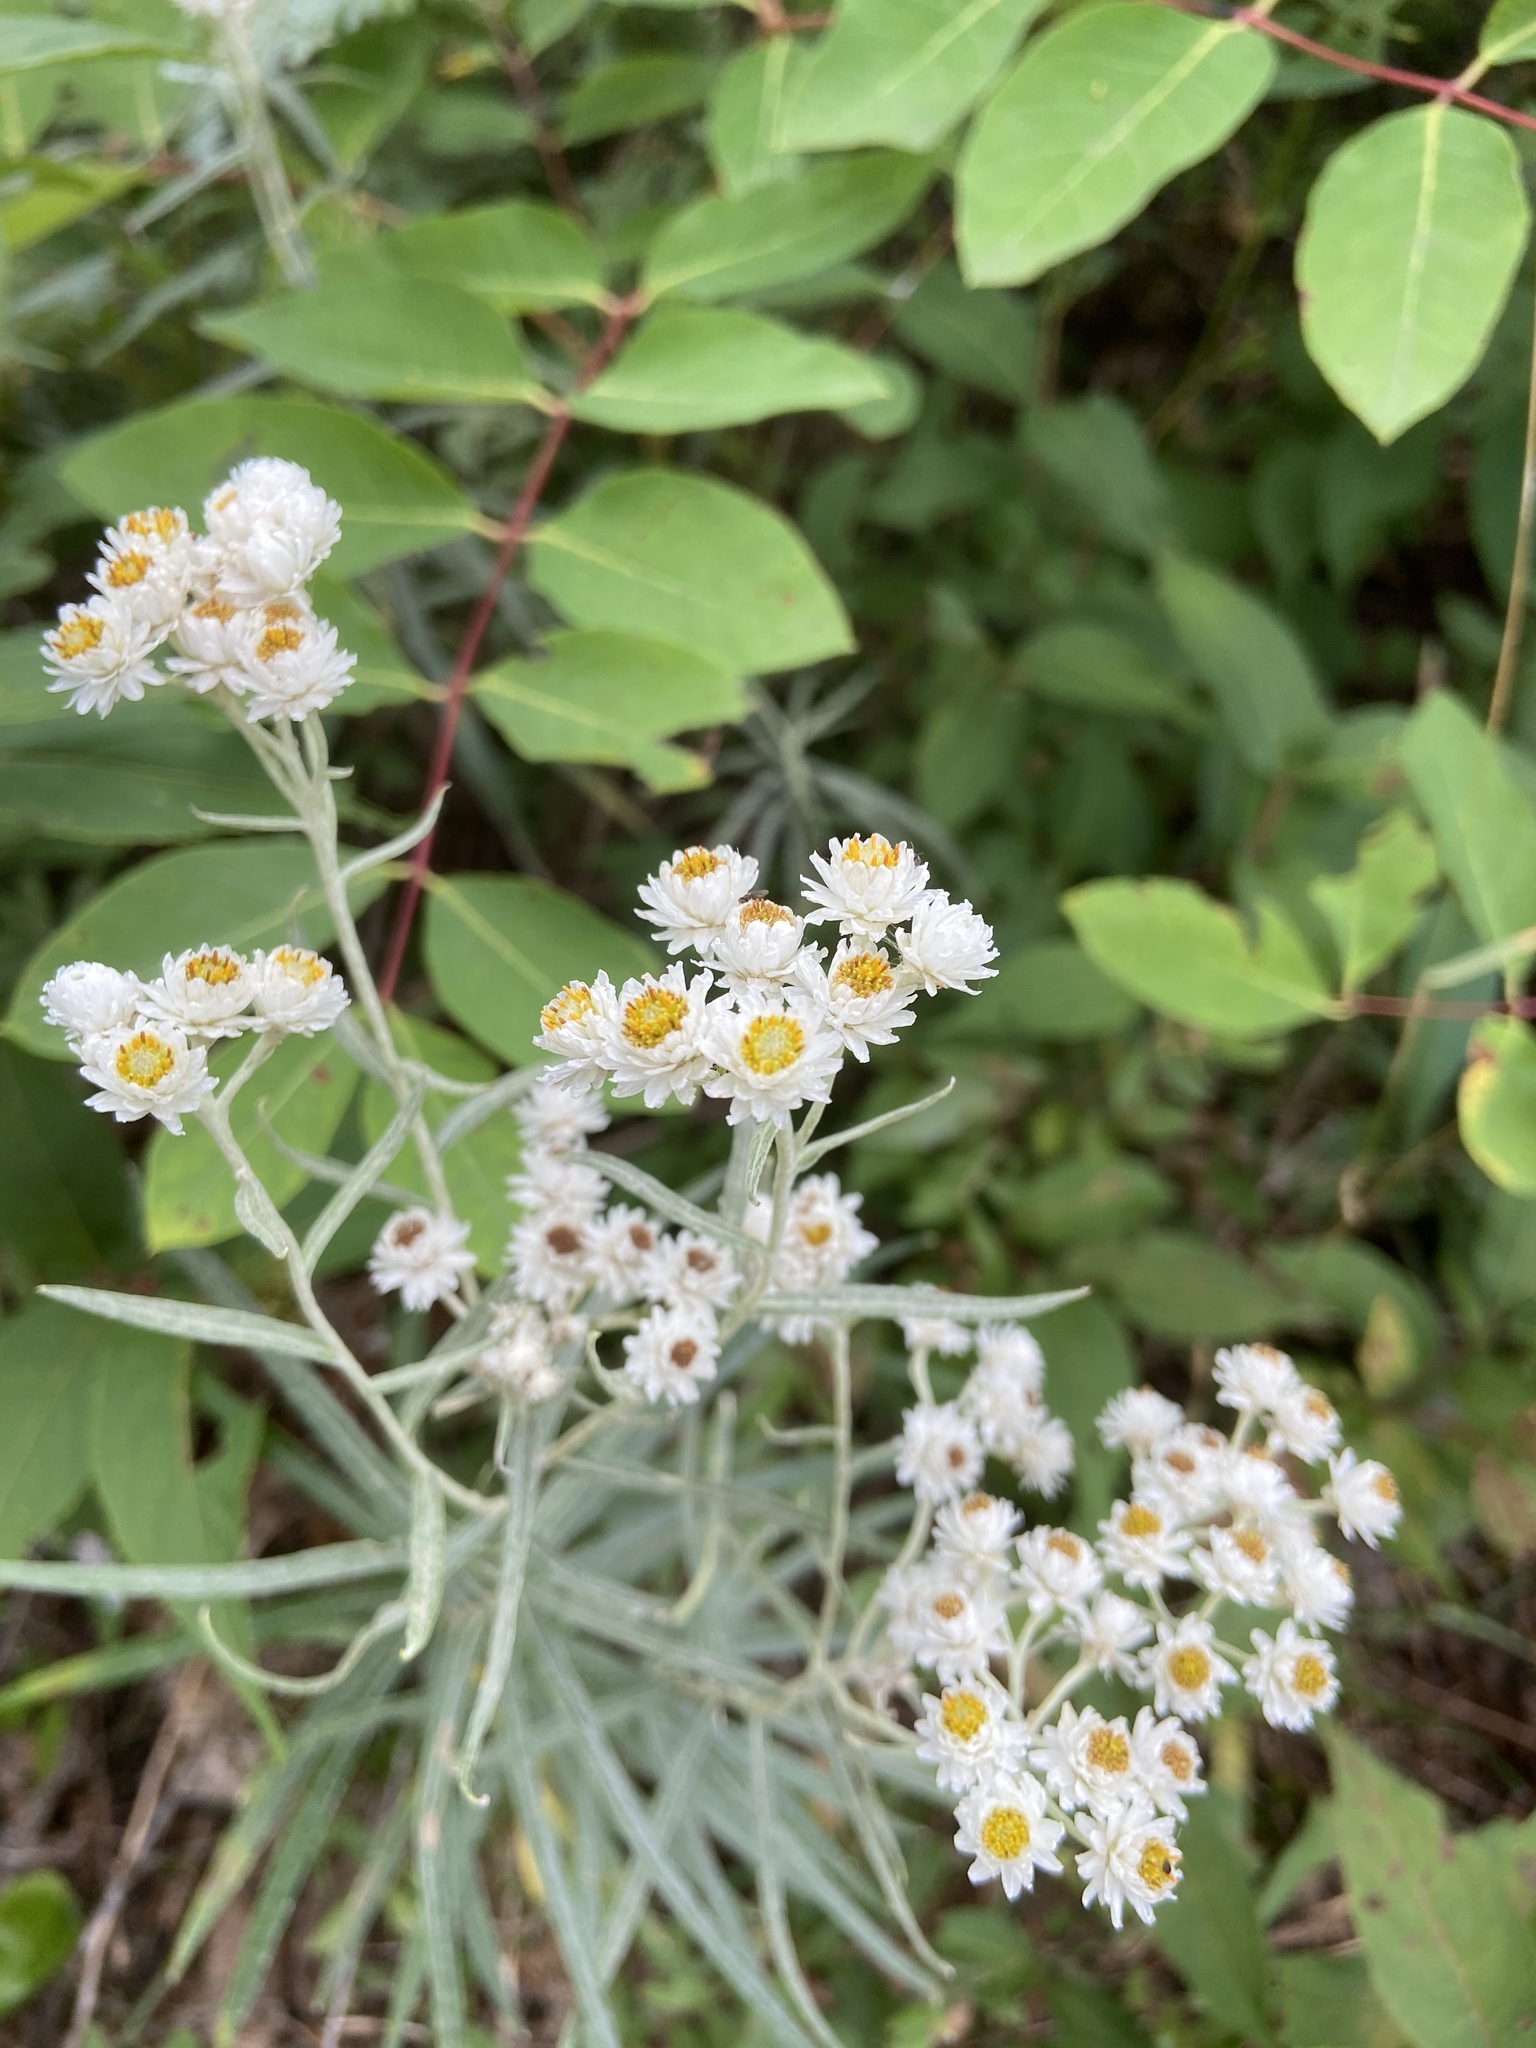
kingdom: Plantae
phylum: Tracheophyta
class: Magnoliopsida
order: Asterales
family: Asteraceae
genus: Anaphalis
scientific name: Anaphalis margaritacea
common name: Pearly everlasting
